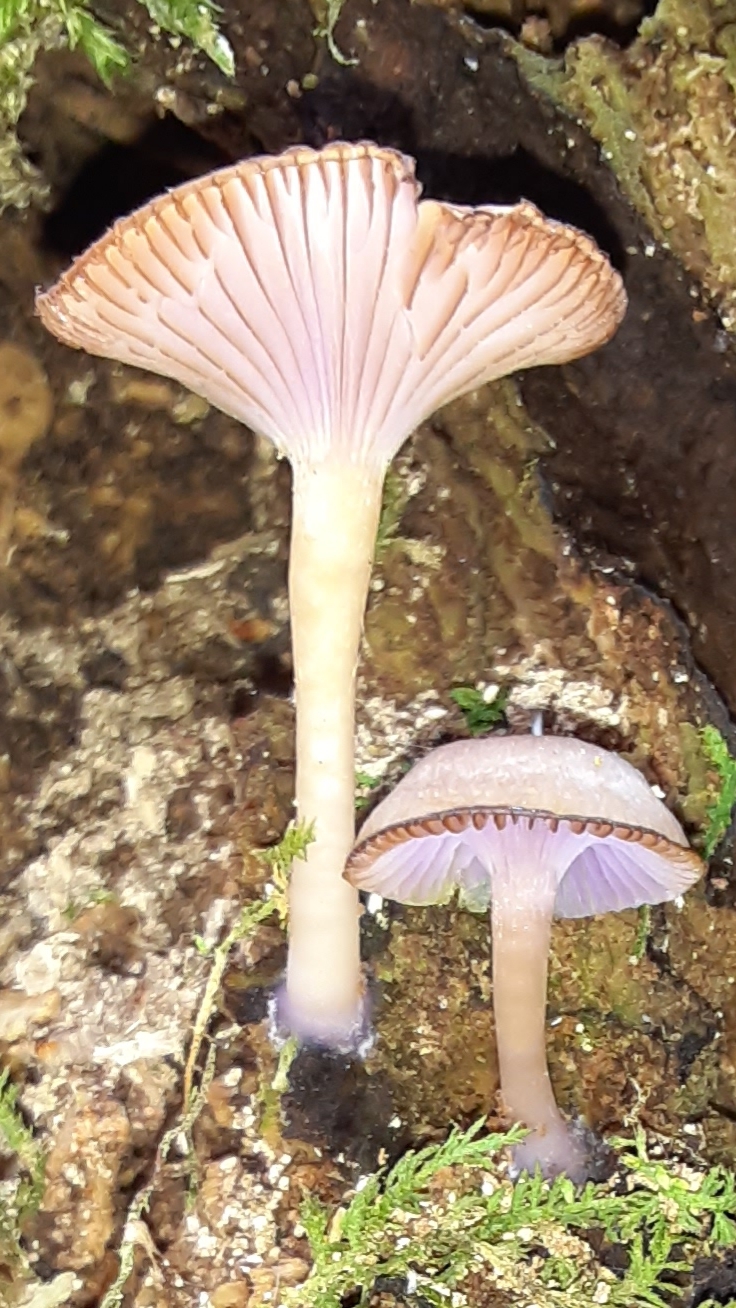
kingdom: Fungi
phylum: Basidiomycota
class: Agaricomycetes
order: Agaricales
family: Hygrophoraceae
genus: Chromosera
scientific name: Chromosera cyanophylla
